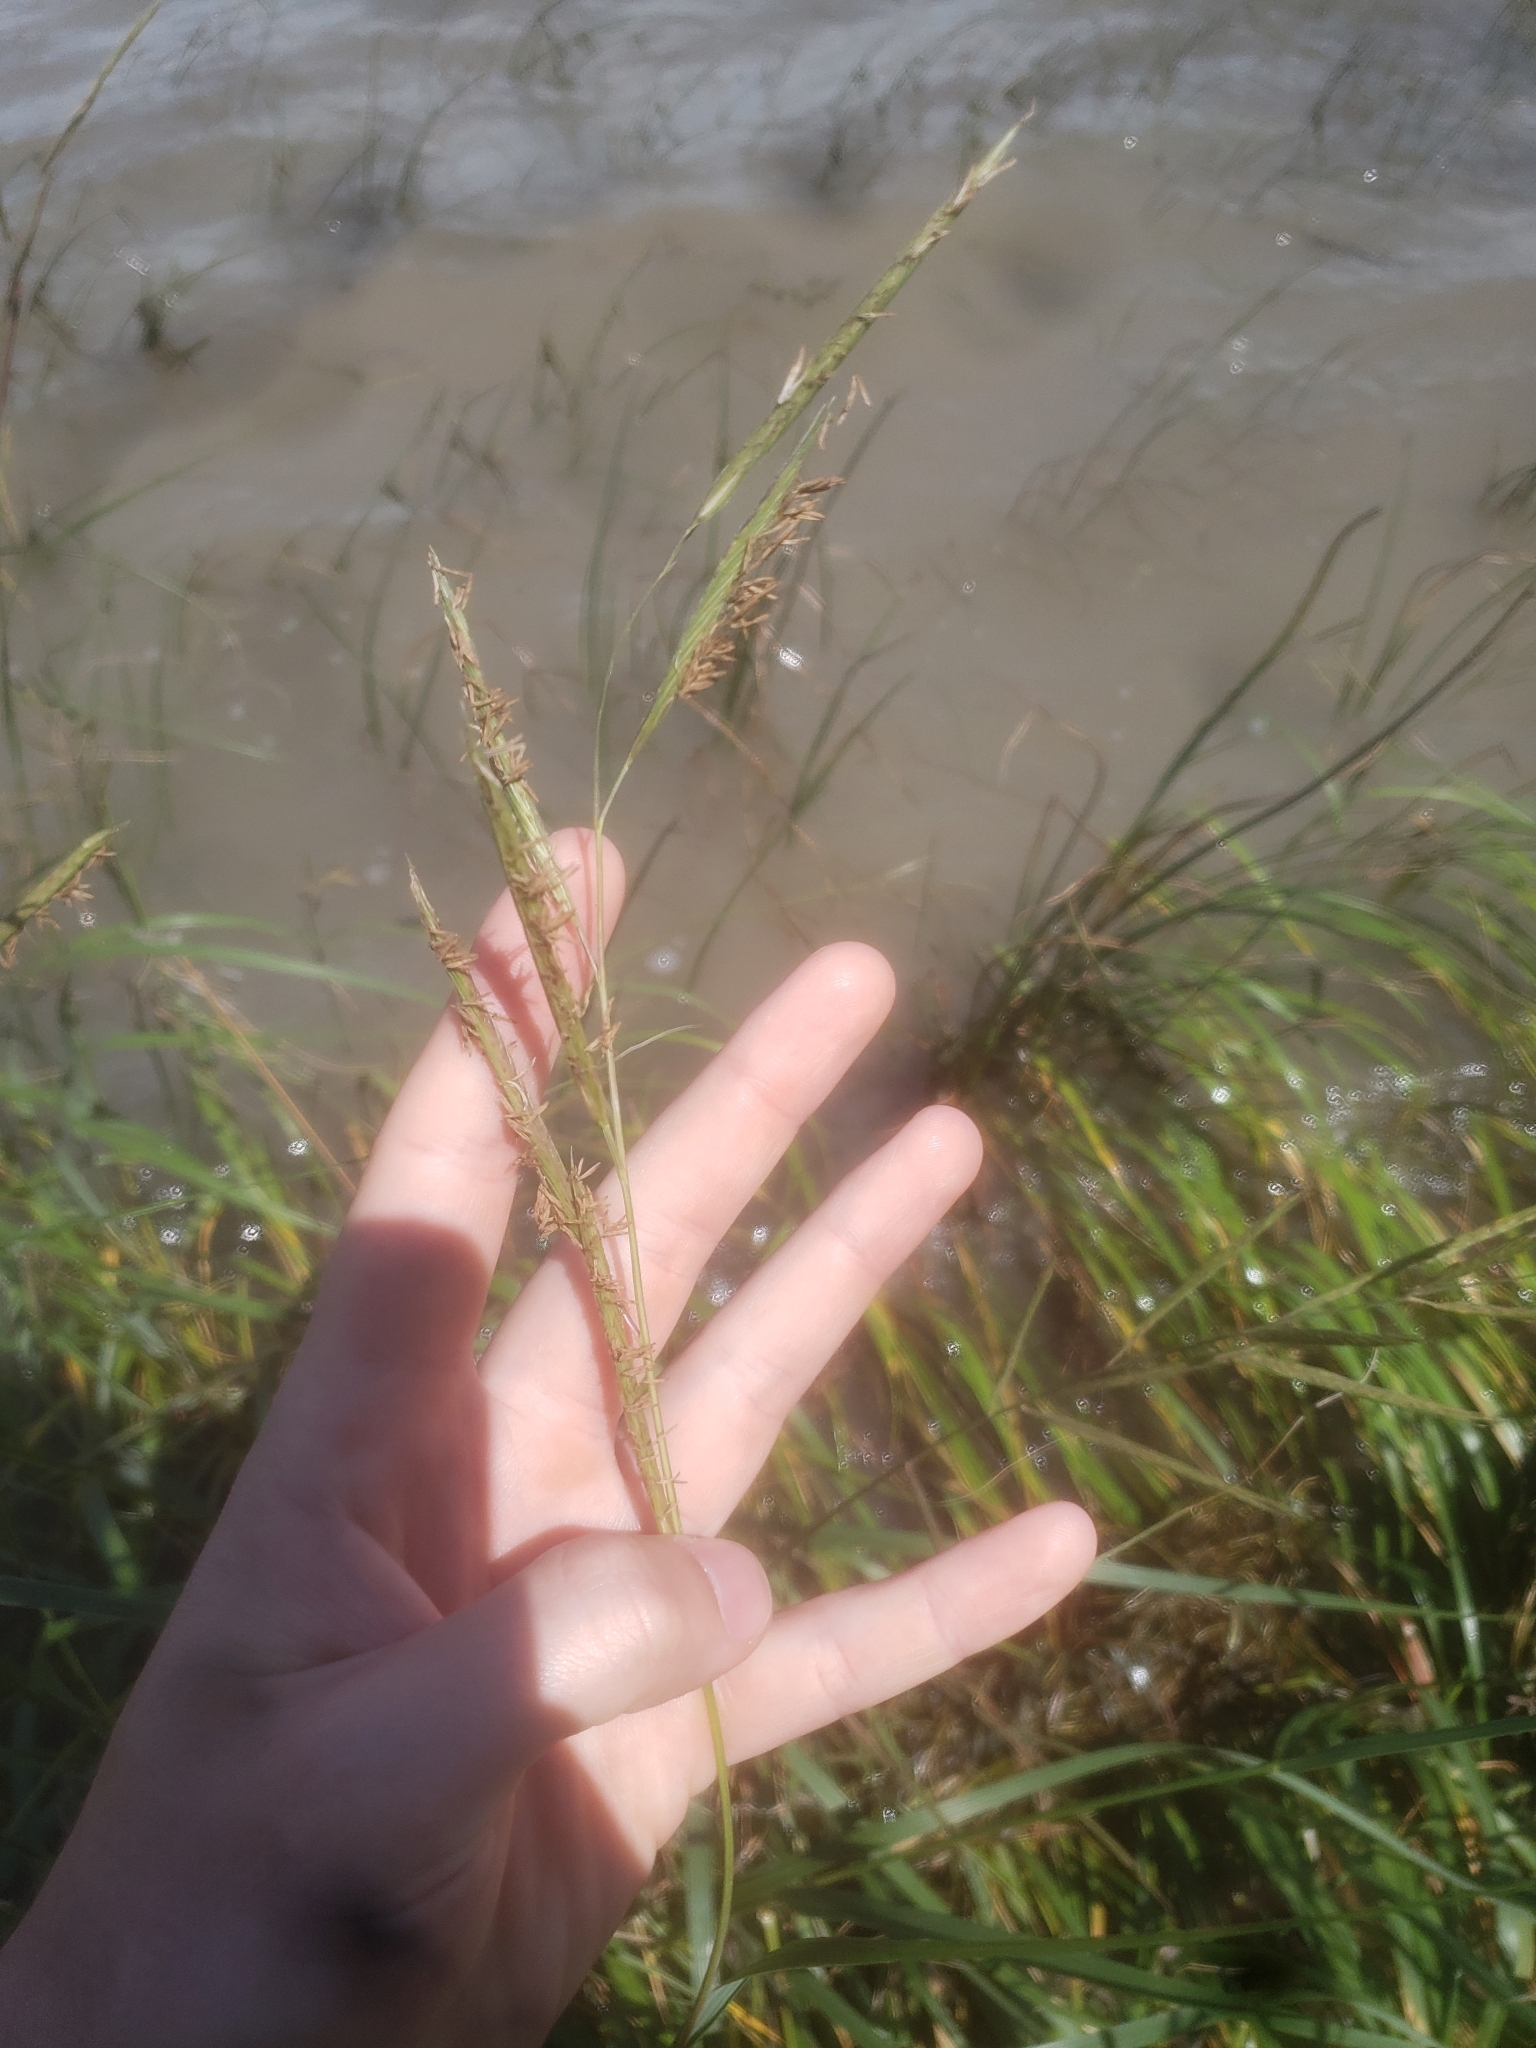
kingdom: Plantae
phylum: Tracheophyta
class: Liliopsida
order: Poales
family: Poaceae
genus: Sporobolus
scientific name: Sporobolus michauxianus
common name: Freshwater cordgrass
